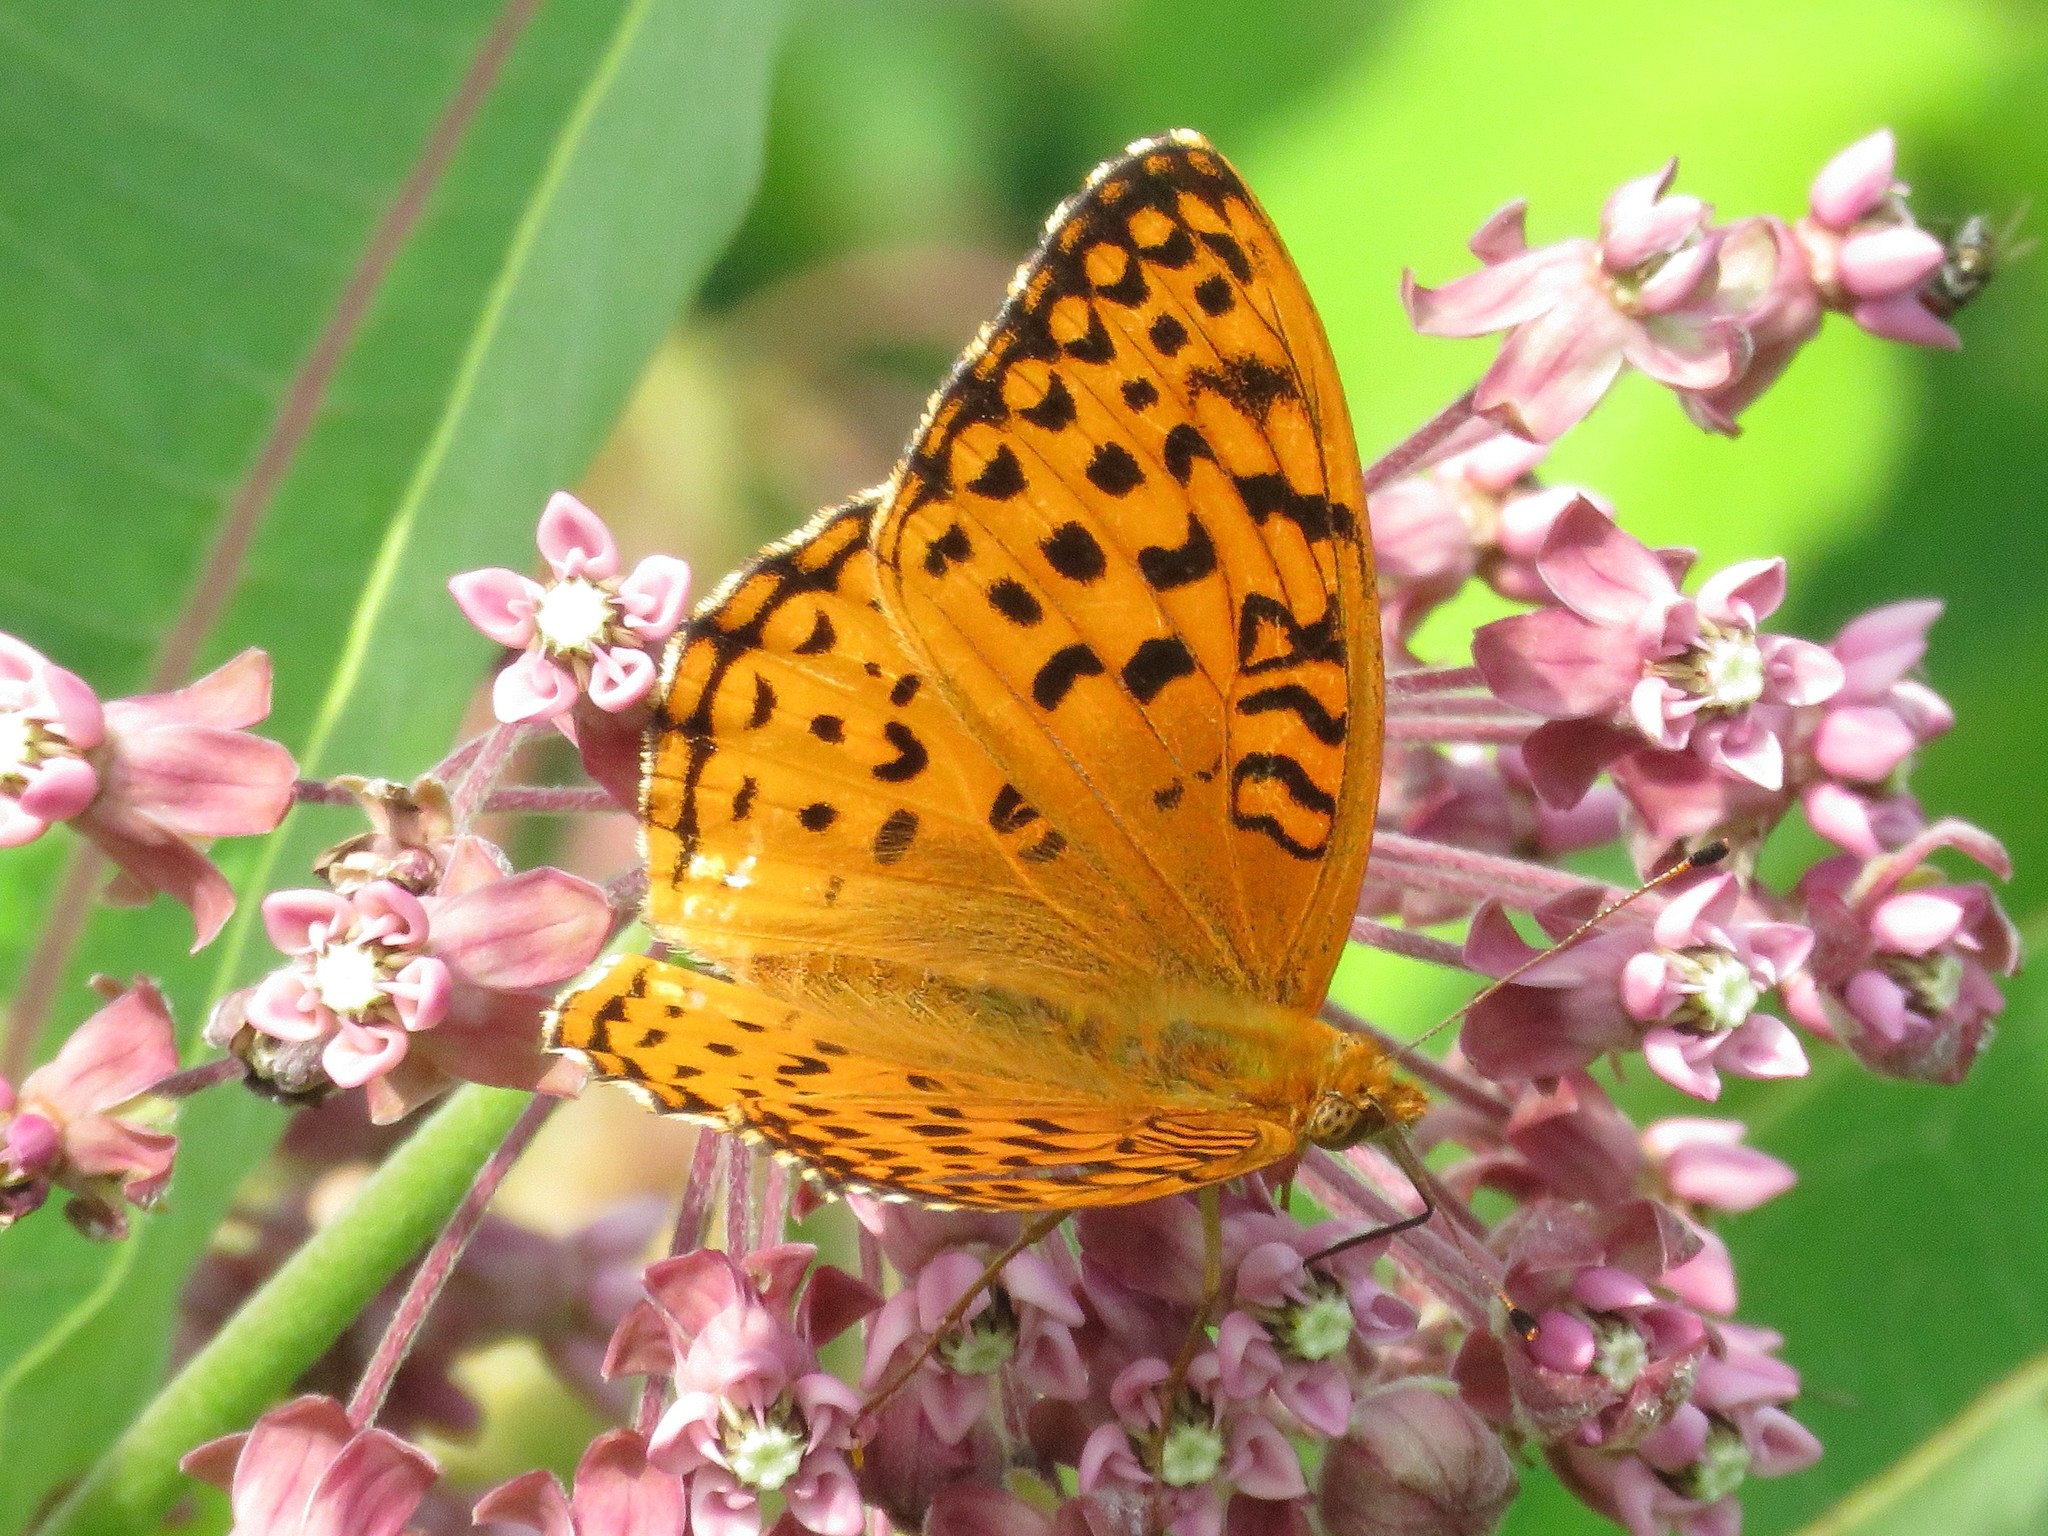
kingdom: Animalia
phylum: Arthropoda
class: Insecta
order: Lepidoptera
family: Nymphalidae
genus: Speyeria
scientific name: Speyeria aphrodite
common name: Aphrodite friitllary
